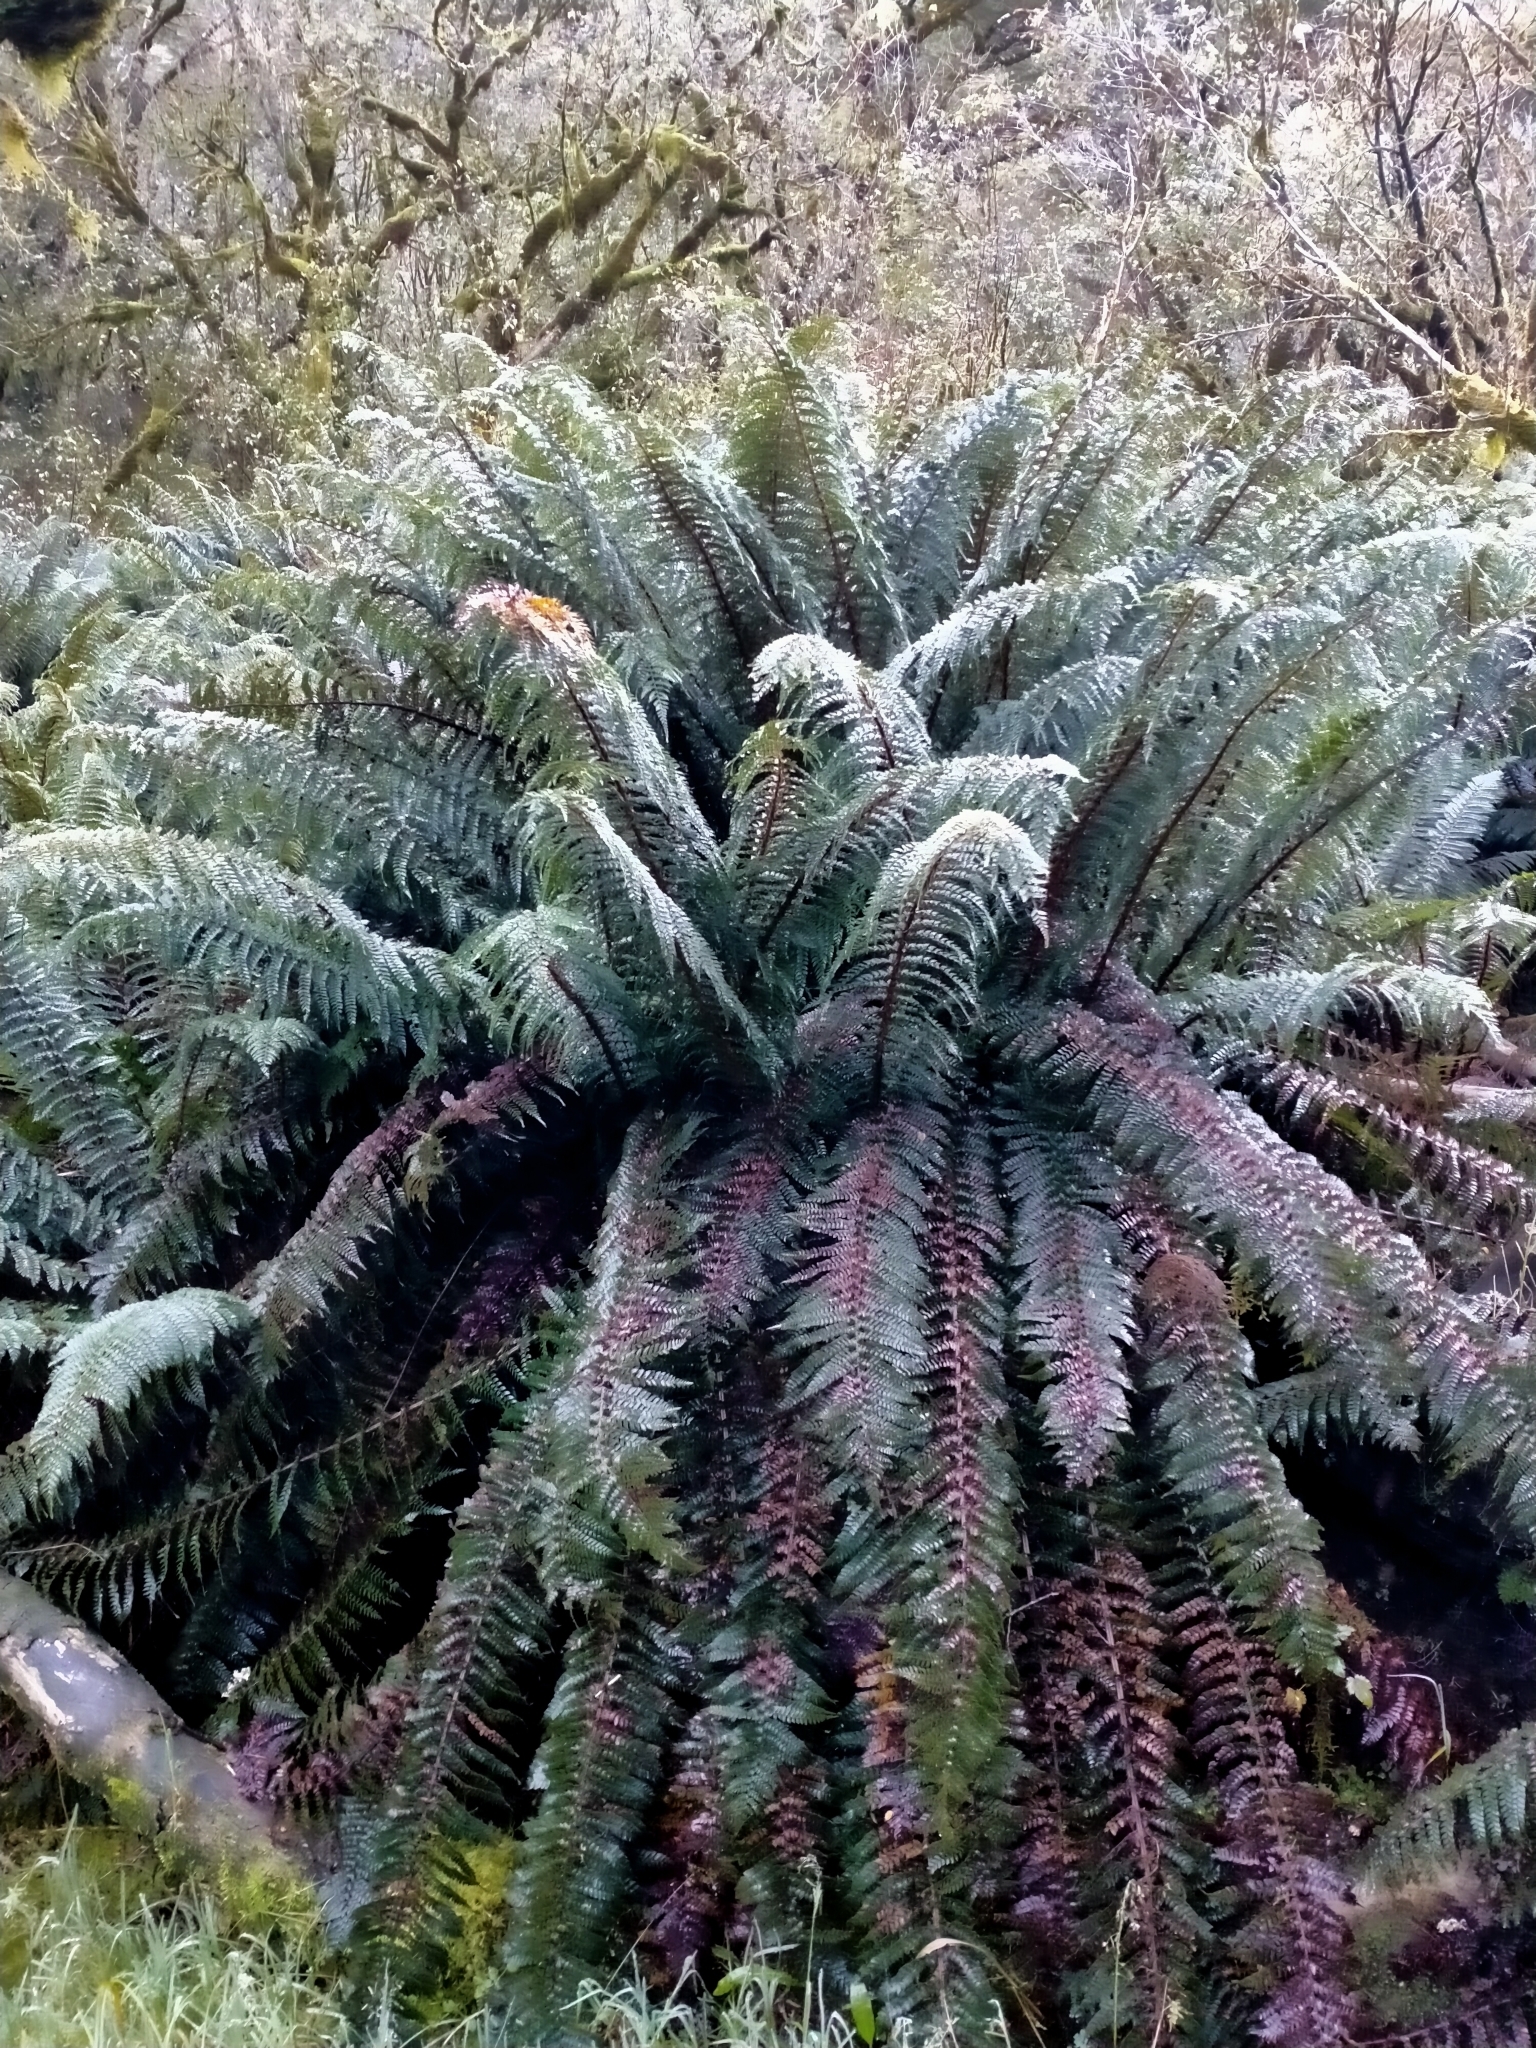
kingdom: Plantae
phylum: Tracheophyta
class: Polypodiopsida
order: Polypodiales
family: Dryopteridaceae
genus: Polystichum
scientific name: Polystichum vestitum
